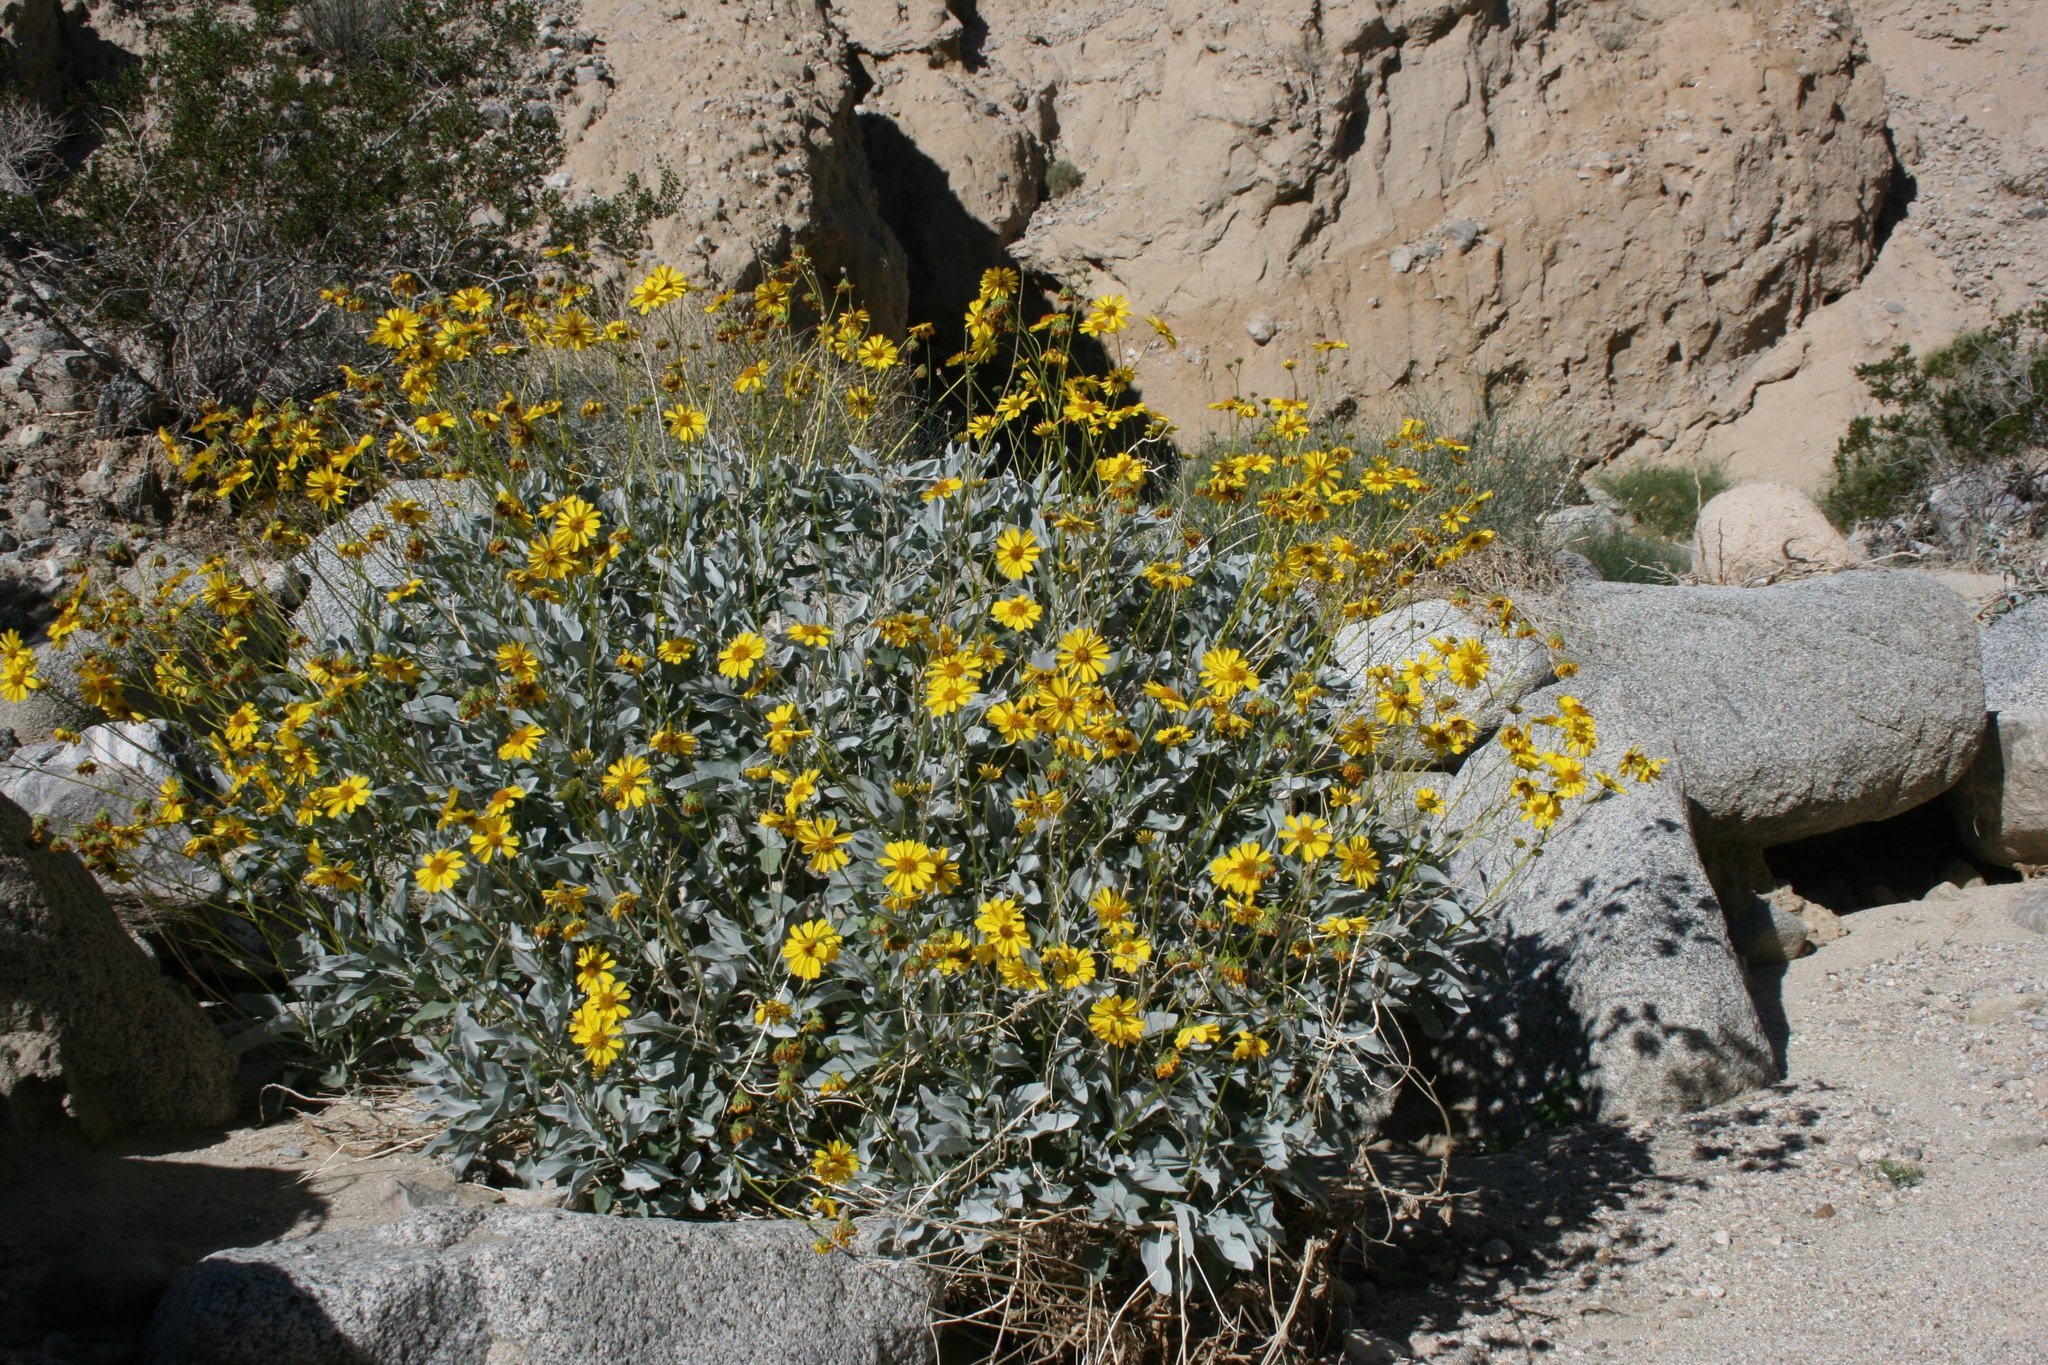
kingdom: Plantae
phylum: Tracheophyta
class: Magnoliopsida
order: Asterales
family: Asteraceae
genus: Encelia
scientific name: Encelia farinosa
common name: Brittlebush
